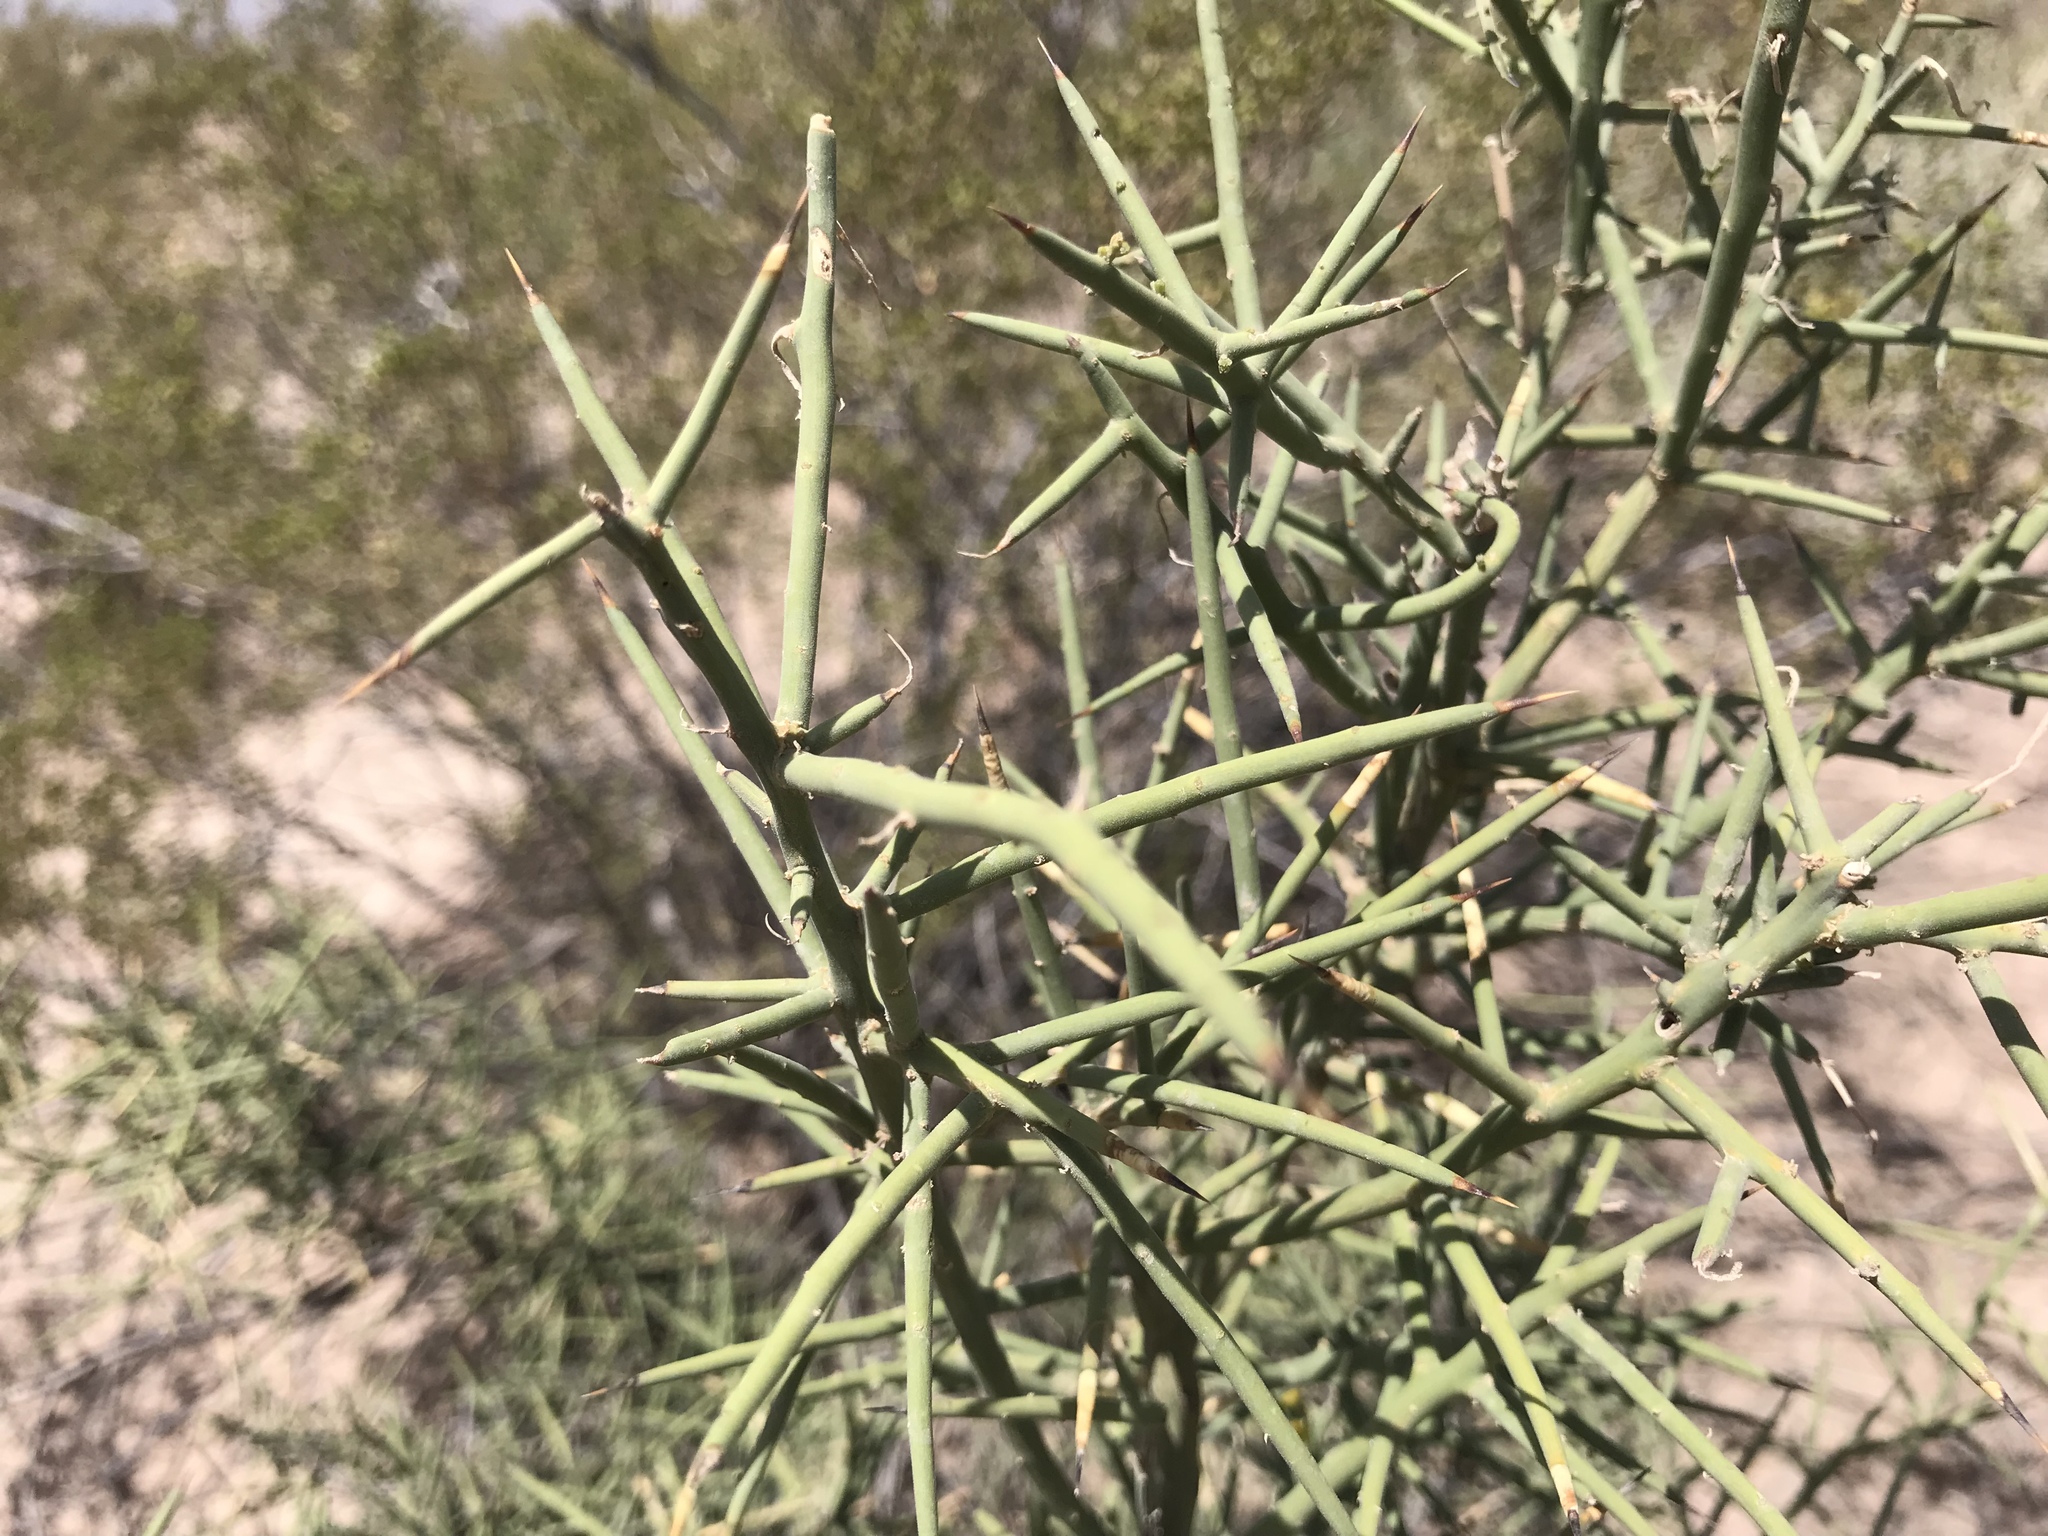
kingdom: Plantae
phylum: Tracheophyta
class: Magnoliopsida
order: Brassicales
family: Koeberliniaceae
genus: Koeberlinia
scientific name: Koeberlinia spinosa
